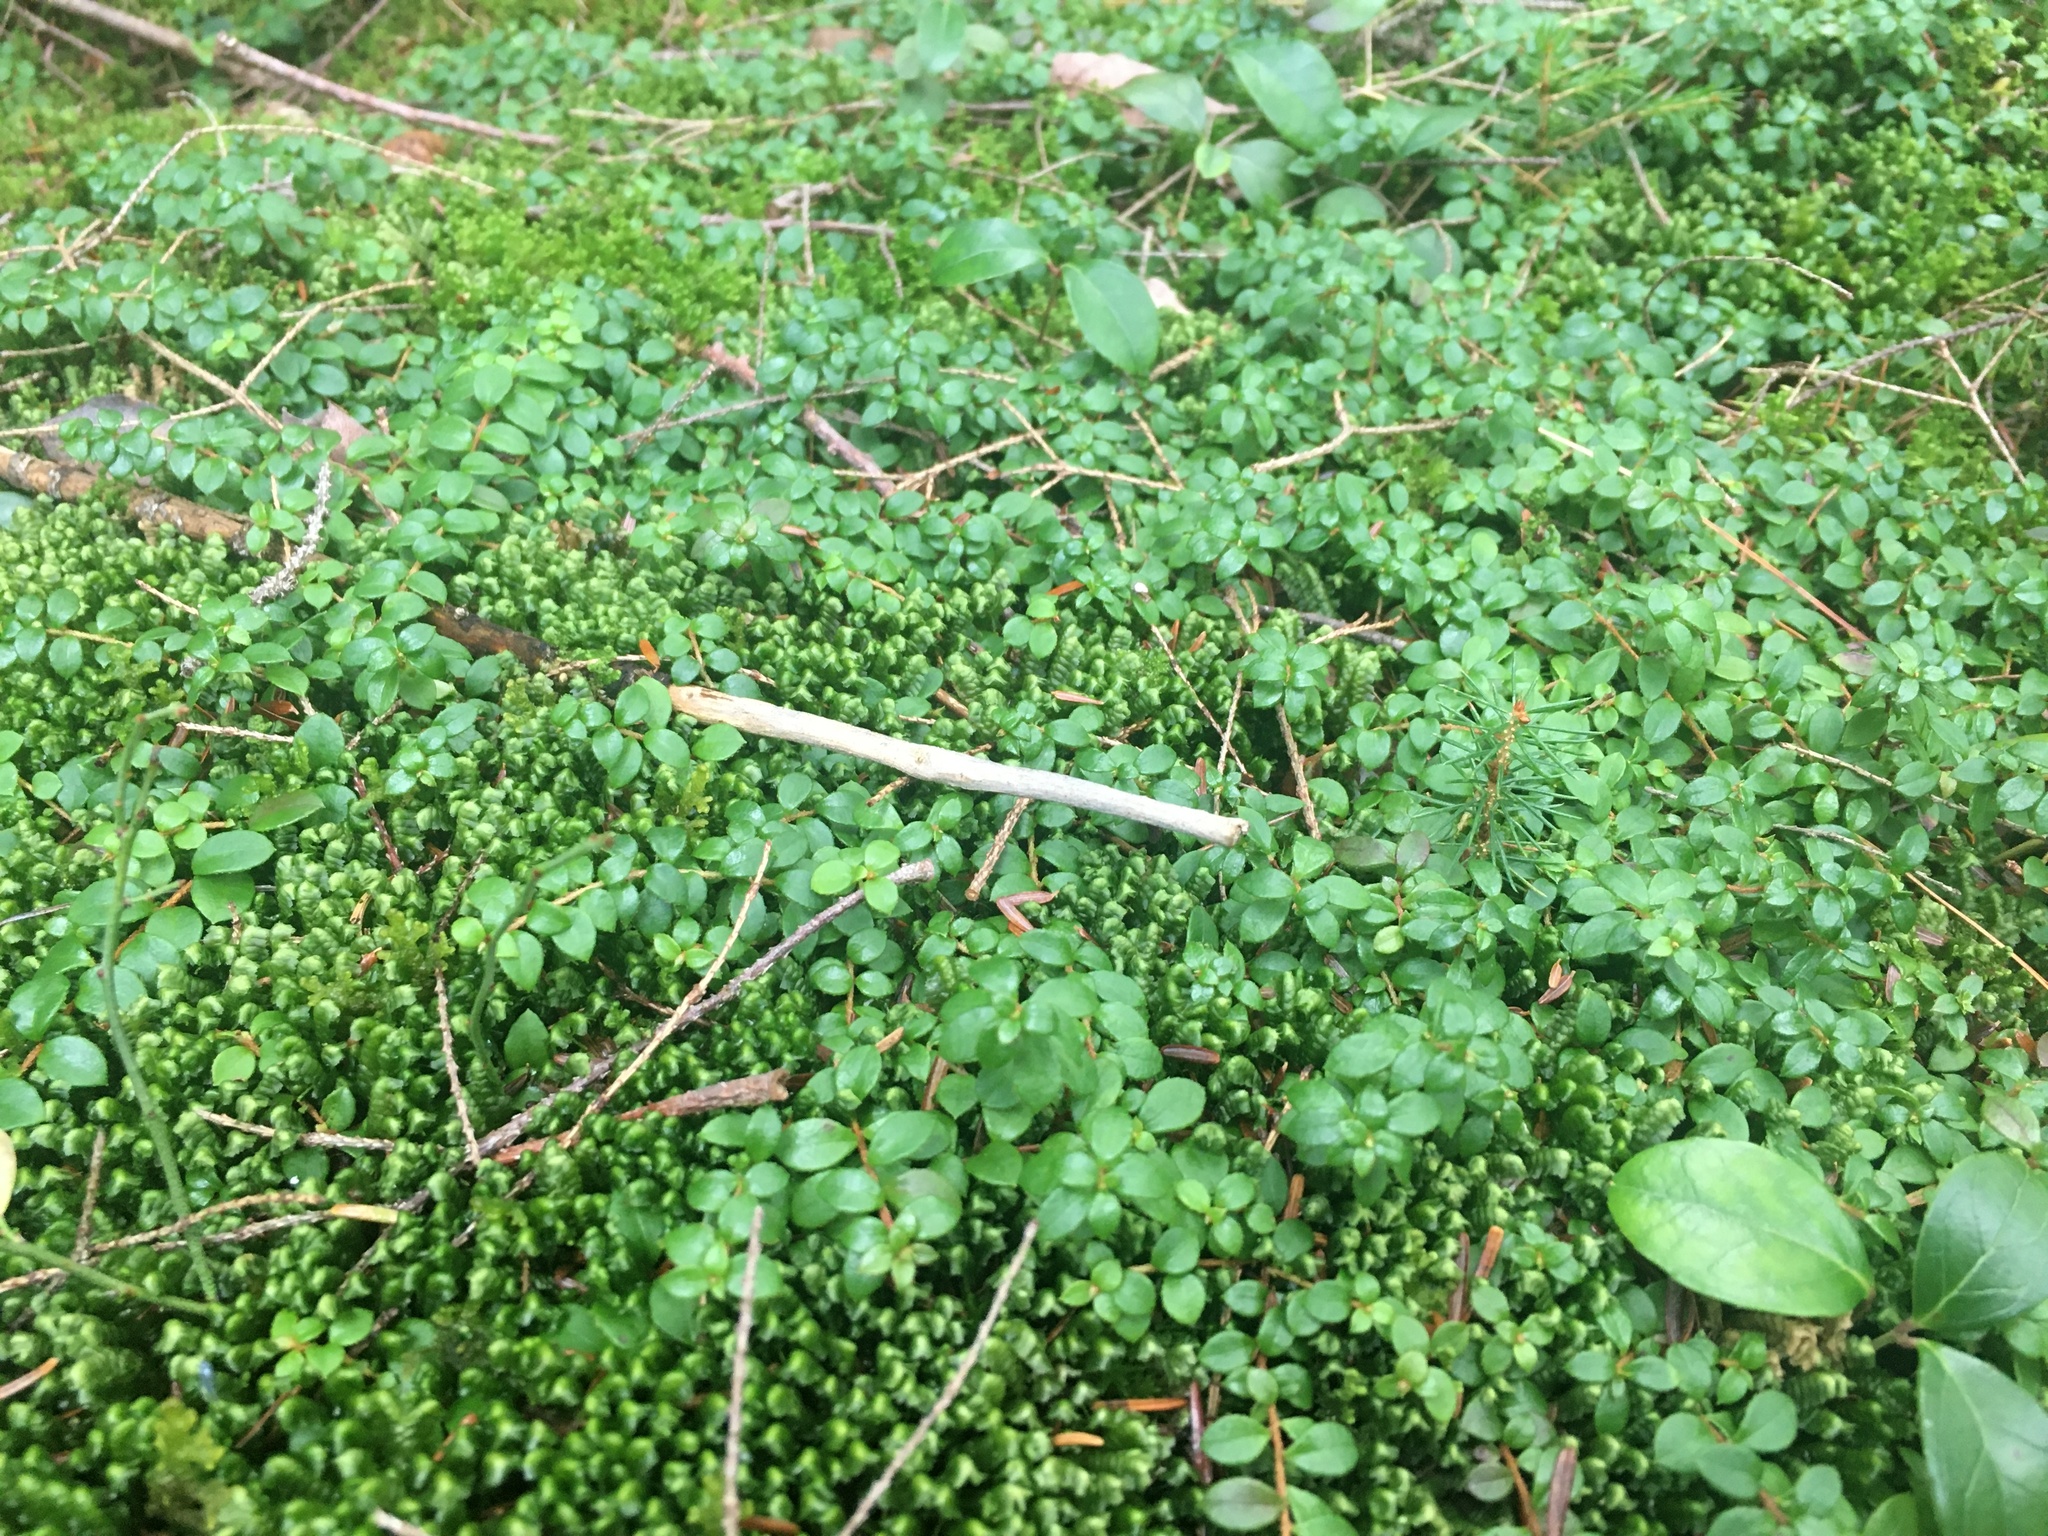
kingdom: Plantae
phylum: Tracheophyta
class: Magnoliopsida
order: Ericales
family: Ericaceae
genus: Gaultheria
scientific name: Gaultheria hispidula
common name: Cancer wintergreen
